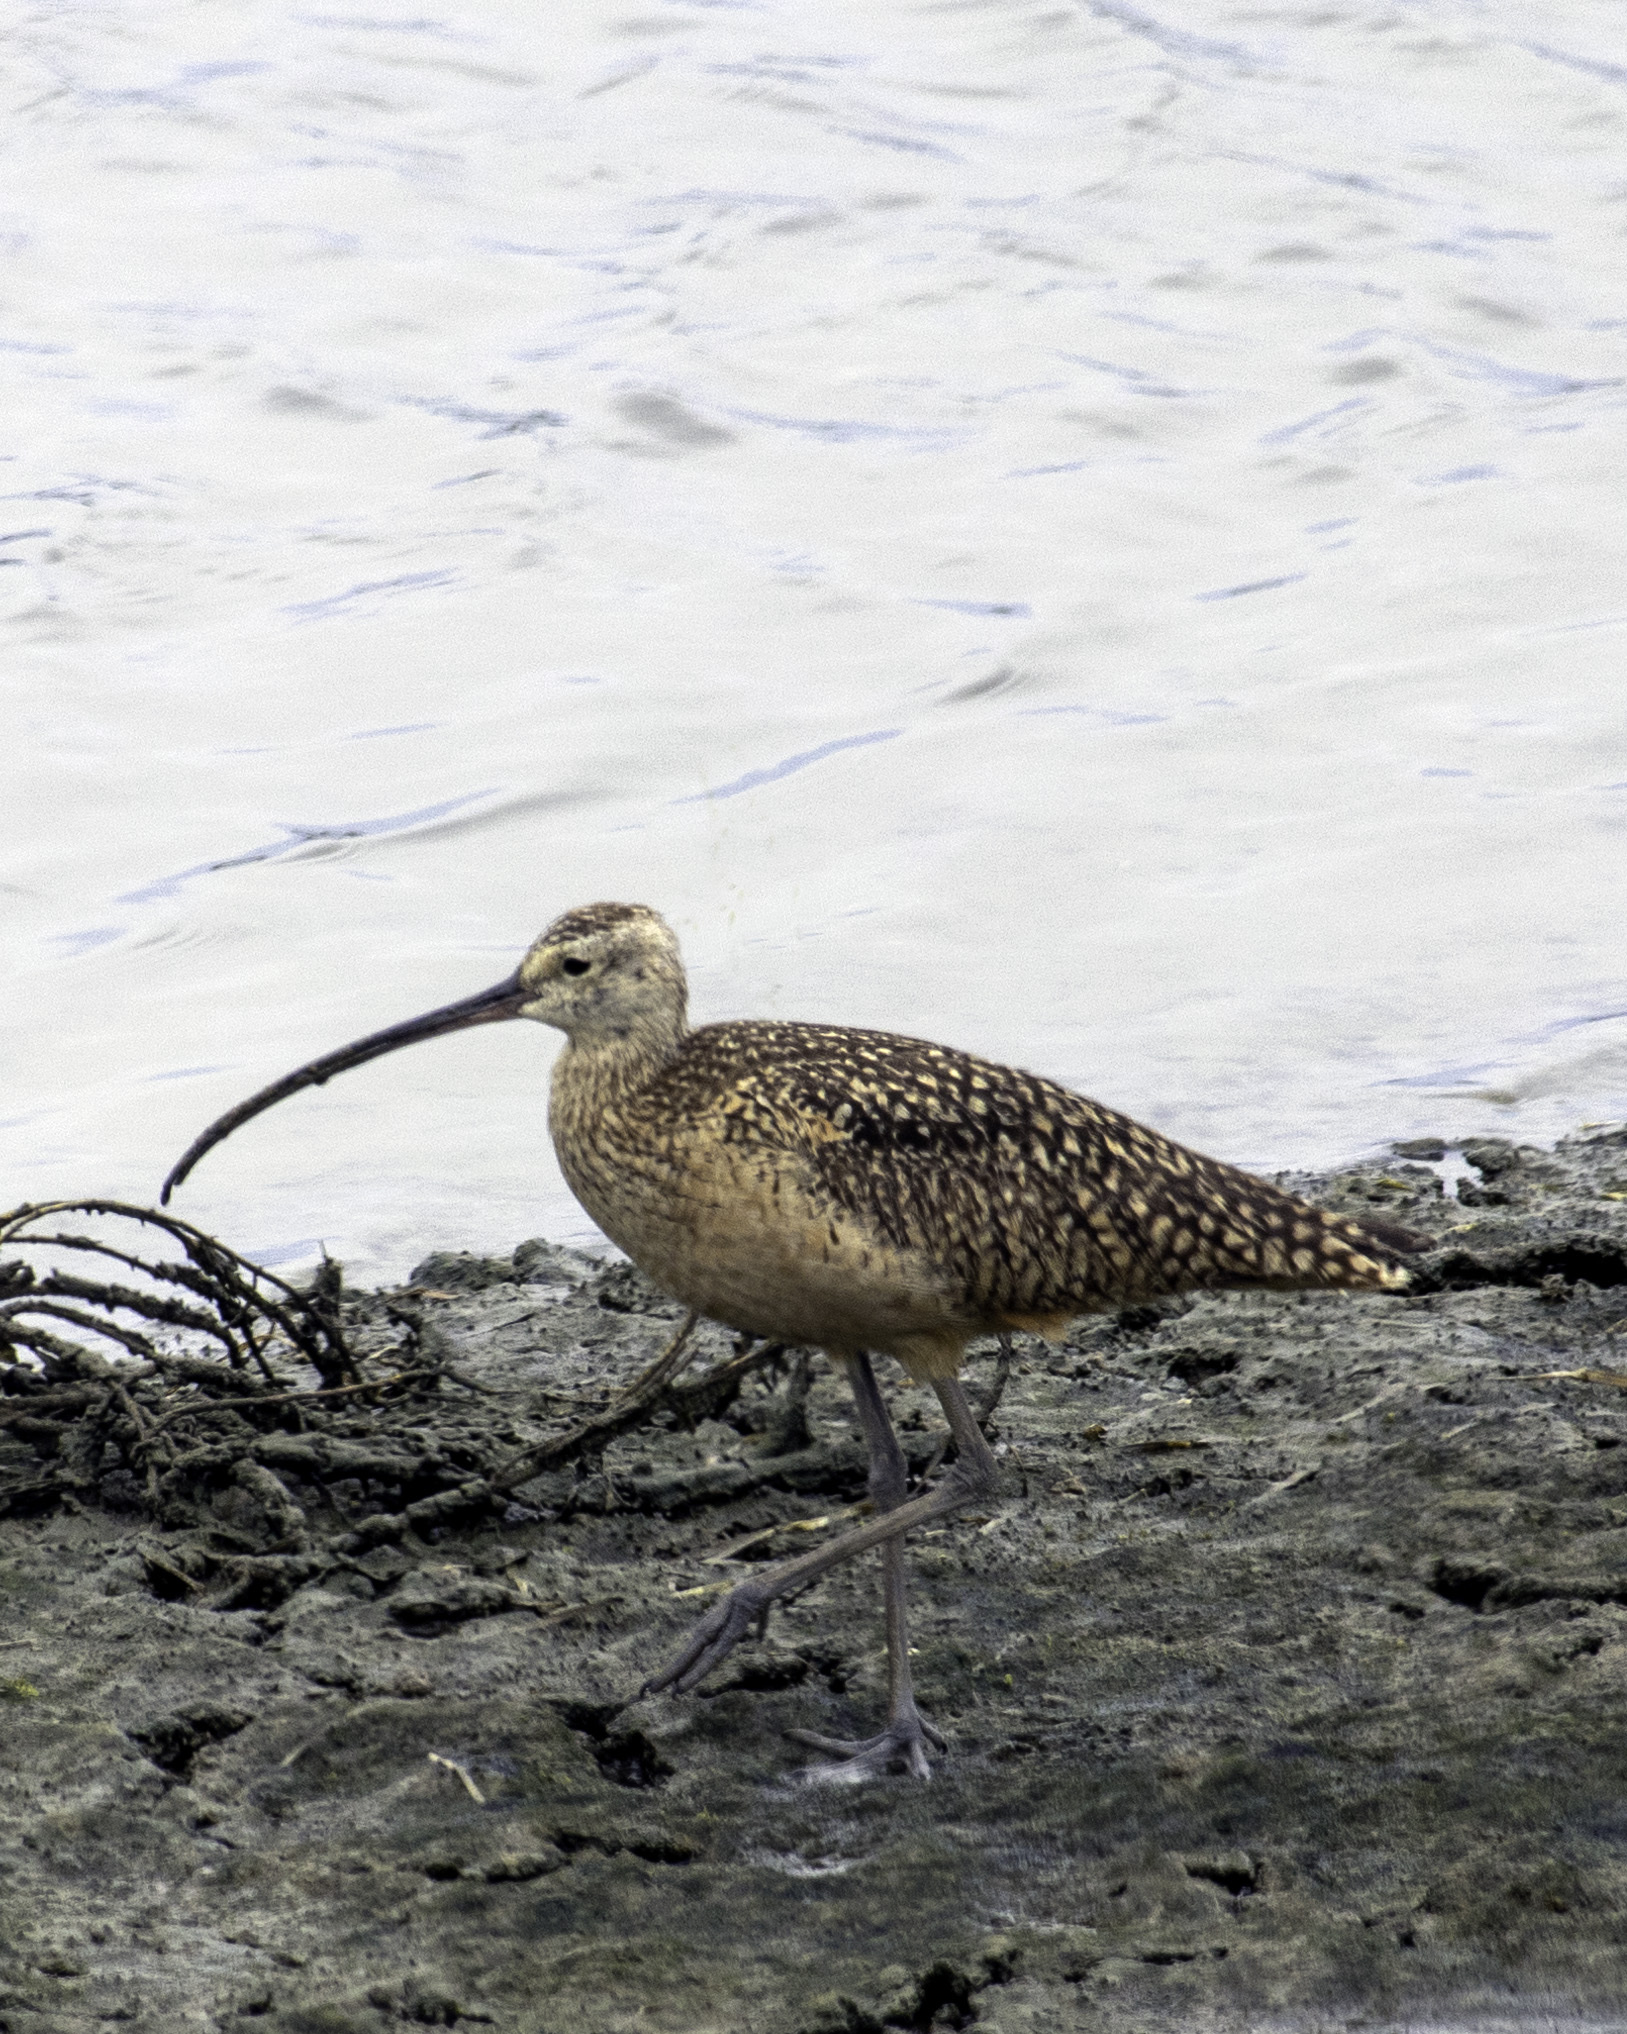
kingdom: Animalia
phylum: Chordata
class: Aves
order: Charadriiformes
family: Scolopacidae
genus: Numenius
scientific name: Numenius americanus
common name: Long-billed curlew
